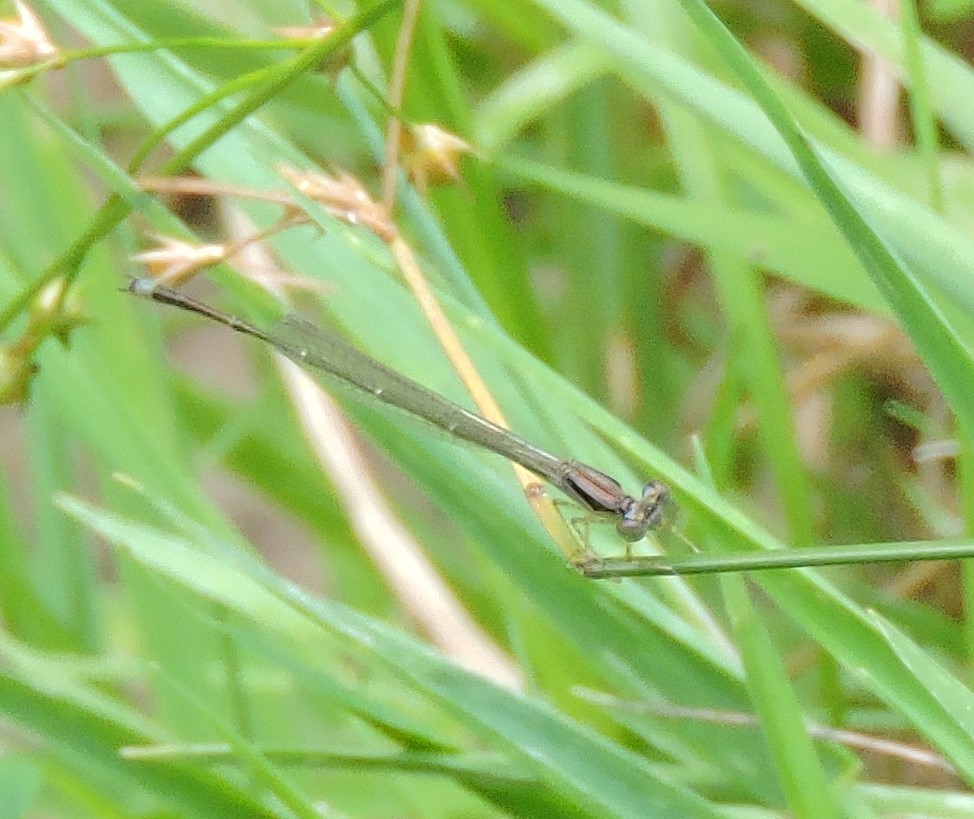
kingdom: Animalia
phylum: Arthropoda
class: Insecta
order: Odonata
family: Coenagrionidae
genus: Enallagma
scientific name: Enallagma signatum
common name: Orange bluet
